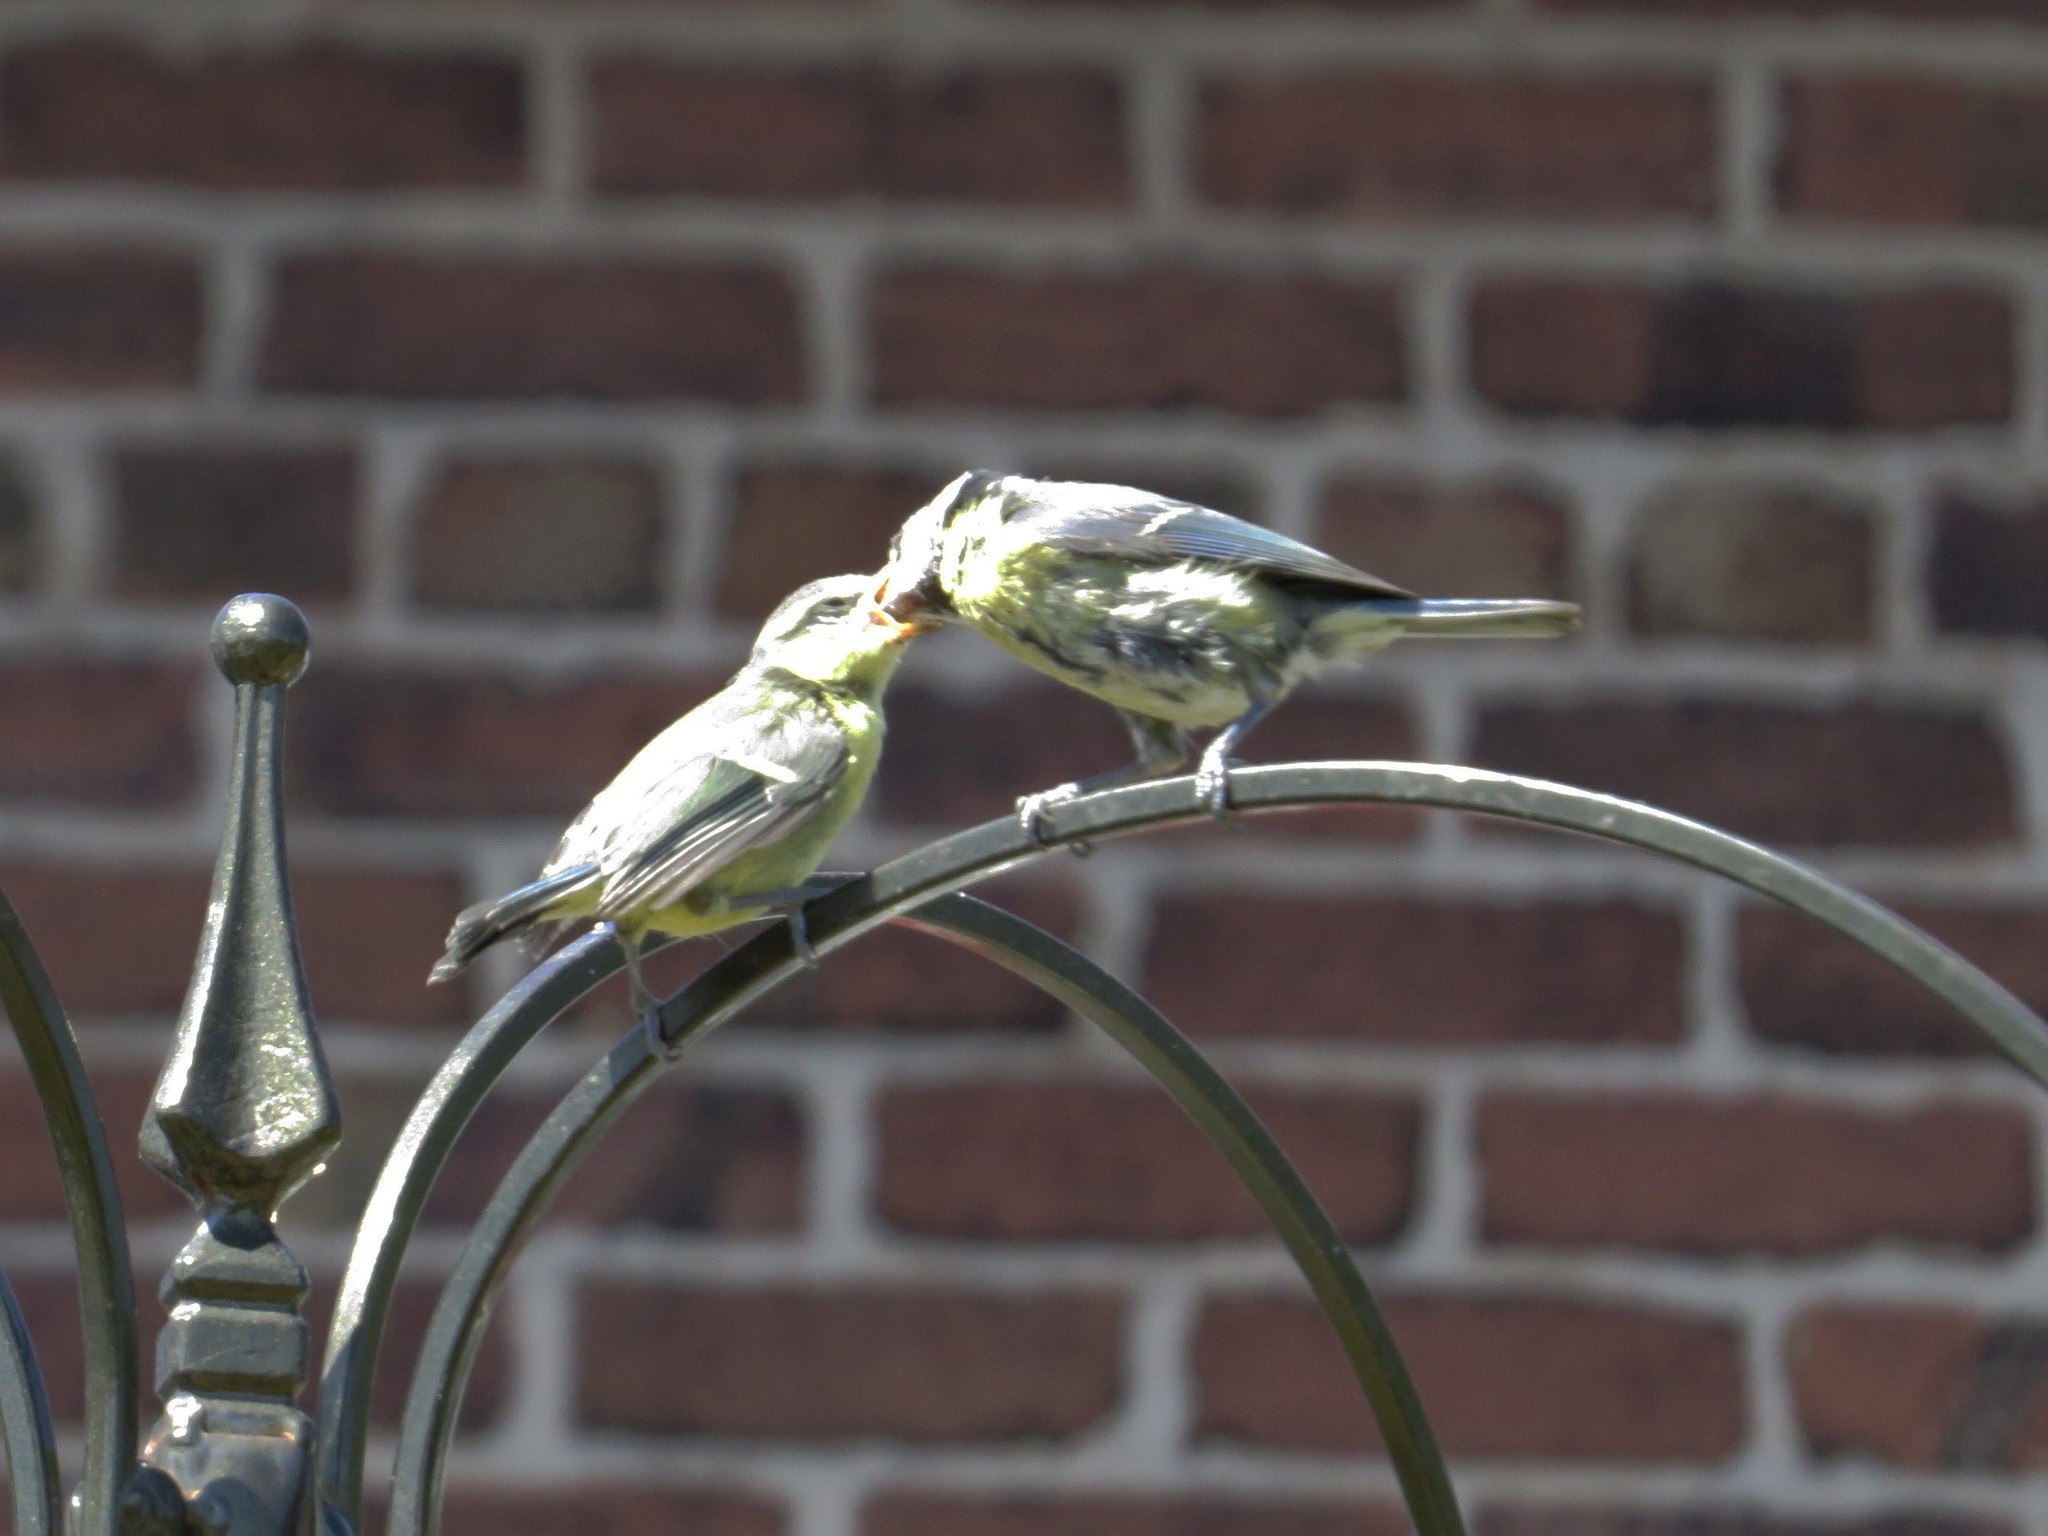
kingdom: Animalia
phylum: Chordata
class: Aves
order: Passeriformes
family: Paridae
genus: Cyanistes
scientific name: Cyanistes caeruleus
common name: Eurasian blue tit
